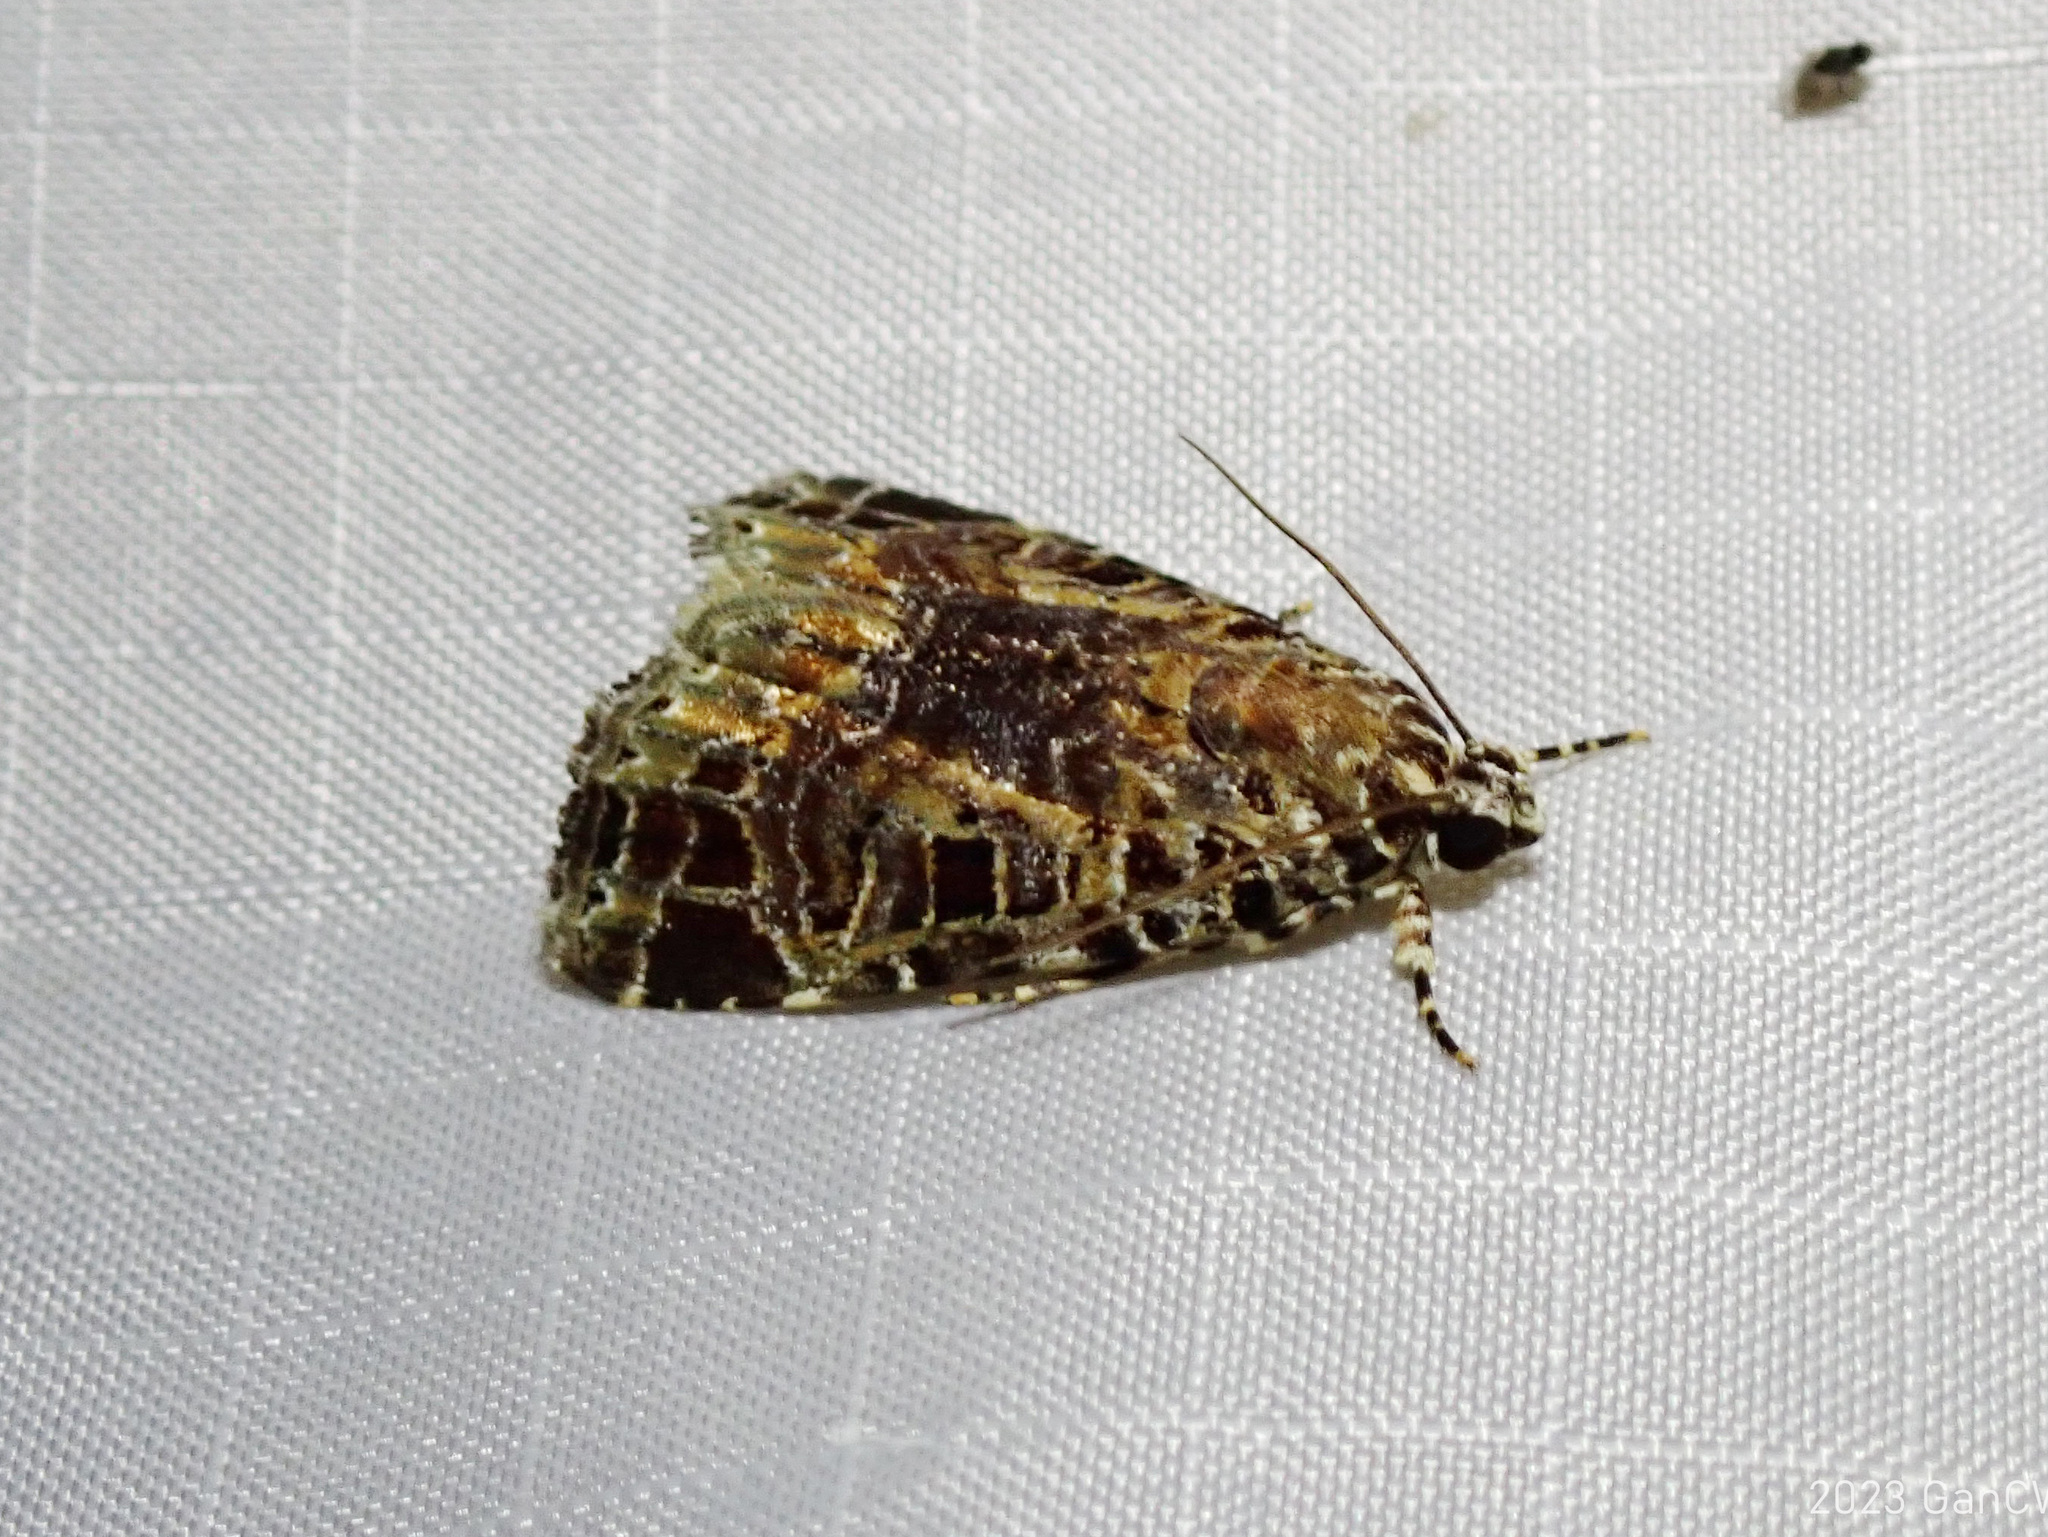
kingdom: Animalia
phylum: Arthropoda
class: Insecta
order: Lepidoptera
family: Noctuidae
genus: Iambia
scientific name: Iambia harmonica
